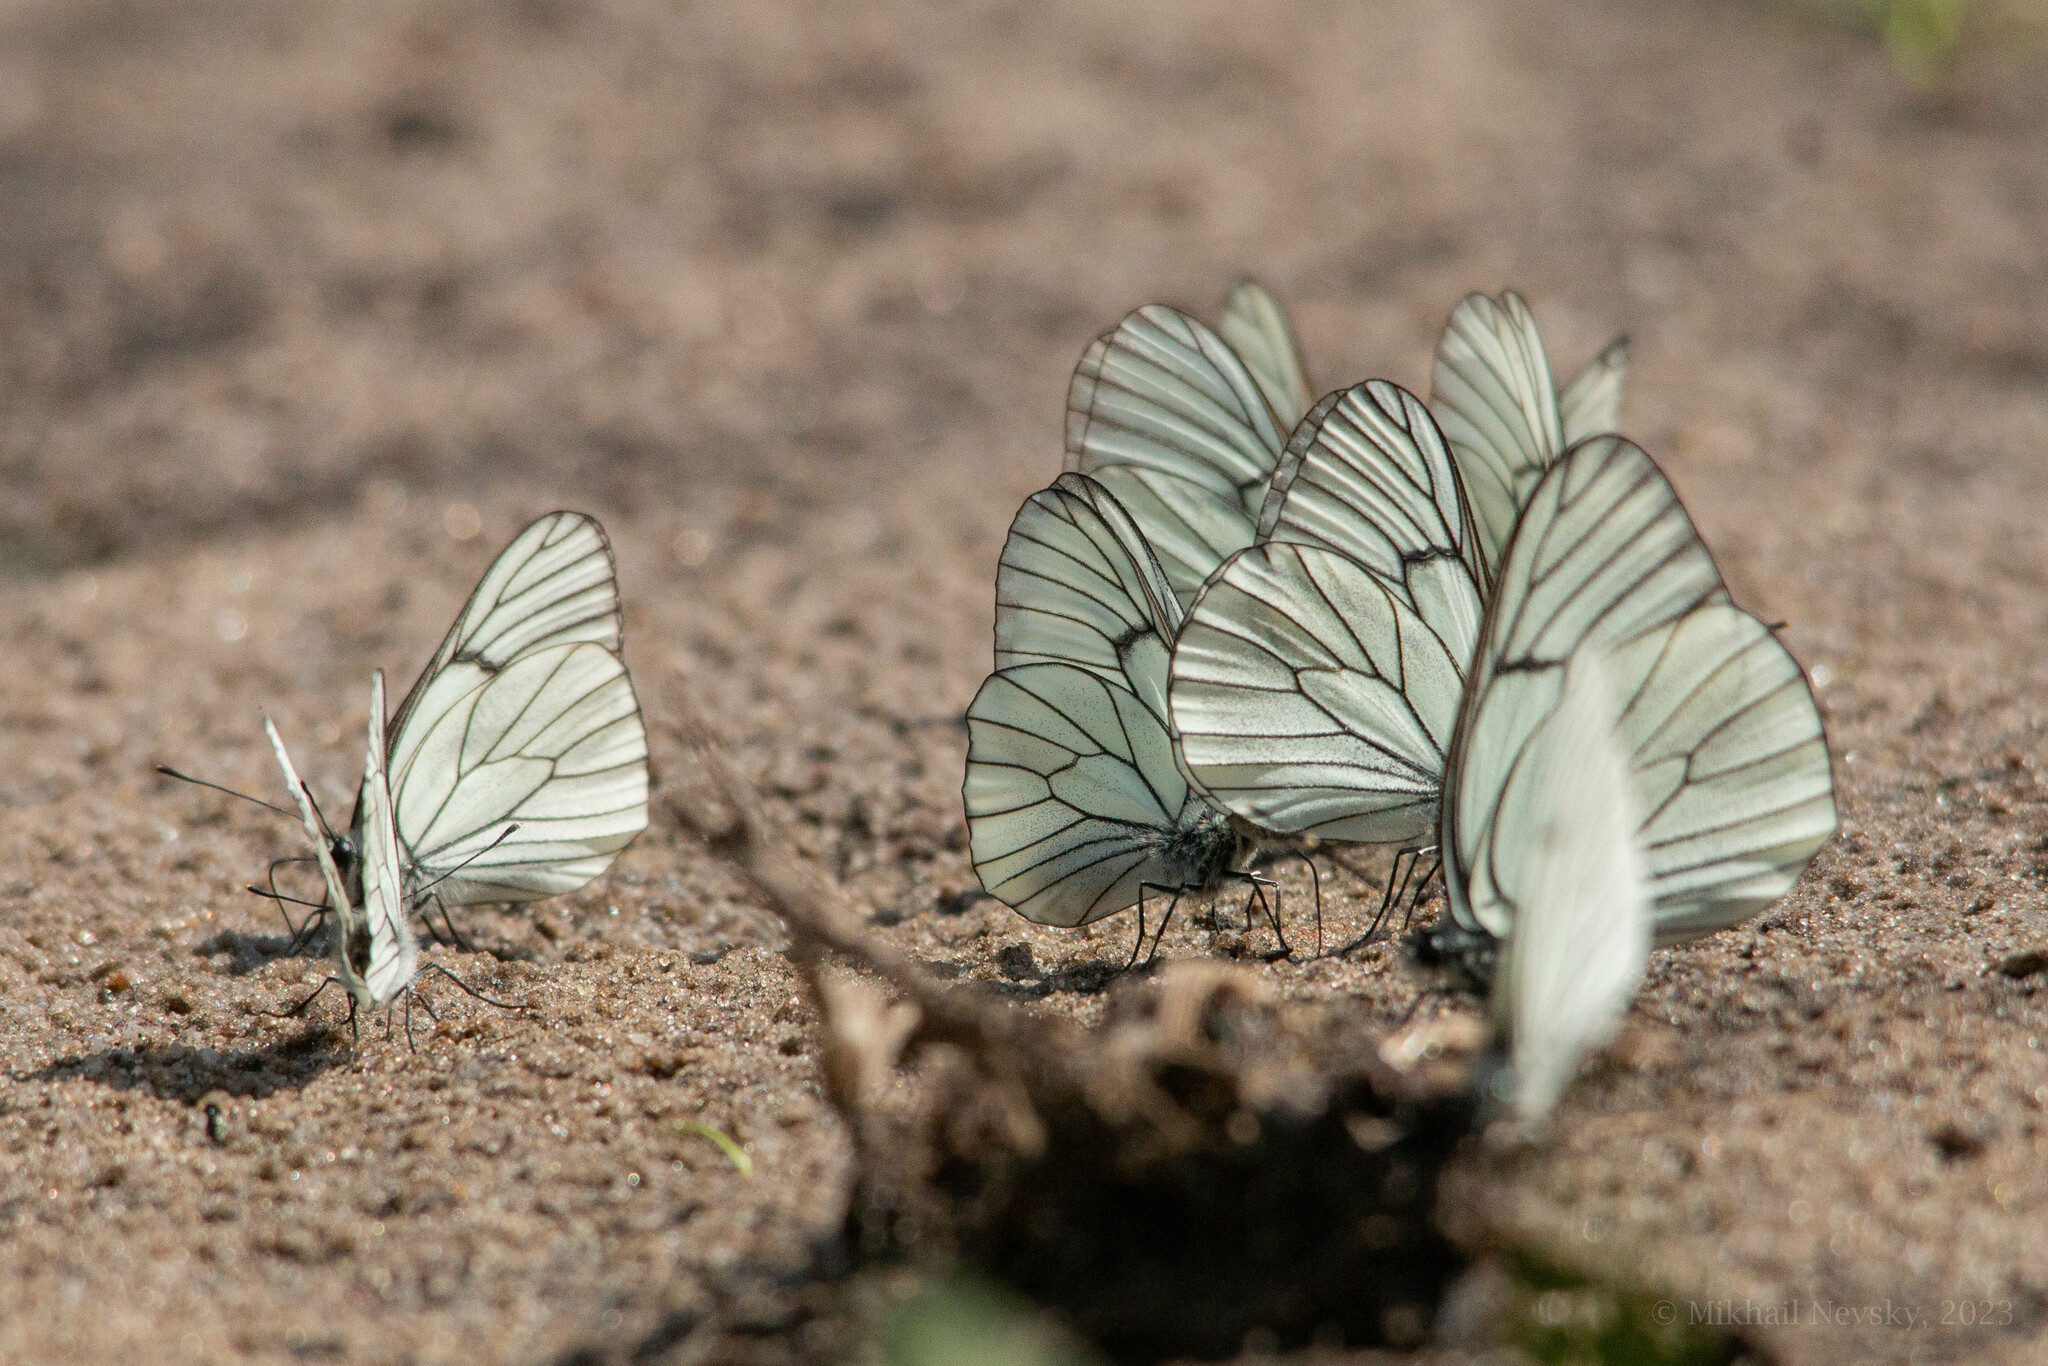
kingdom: Animalia
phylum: Arthropoda
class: Insecta
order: Lepidoptera
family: Pieridae
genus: Aporia
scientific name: Aporia crataegi
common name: Black-veined white
